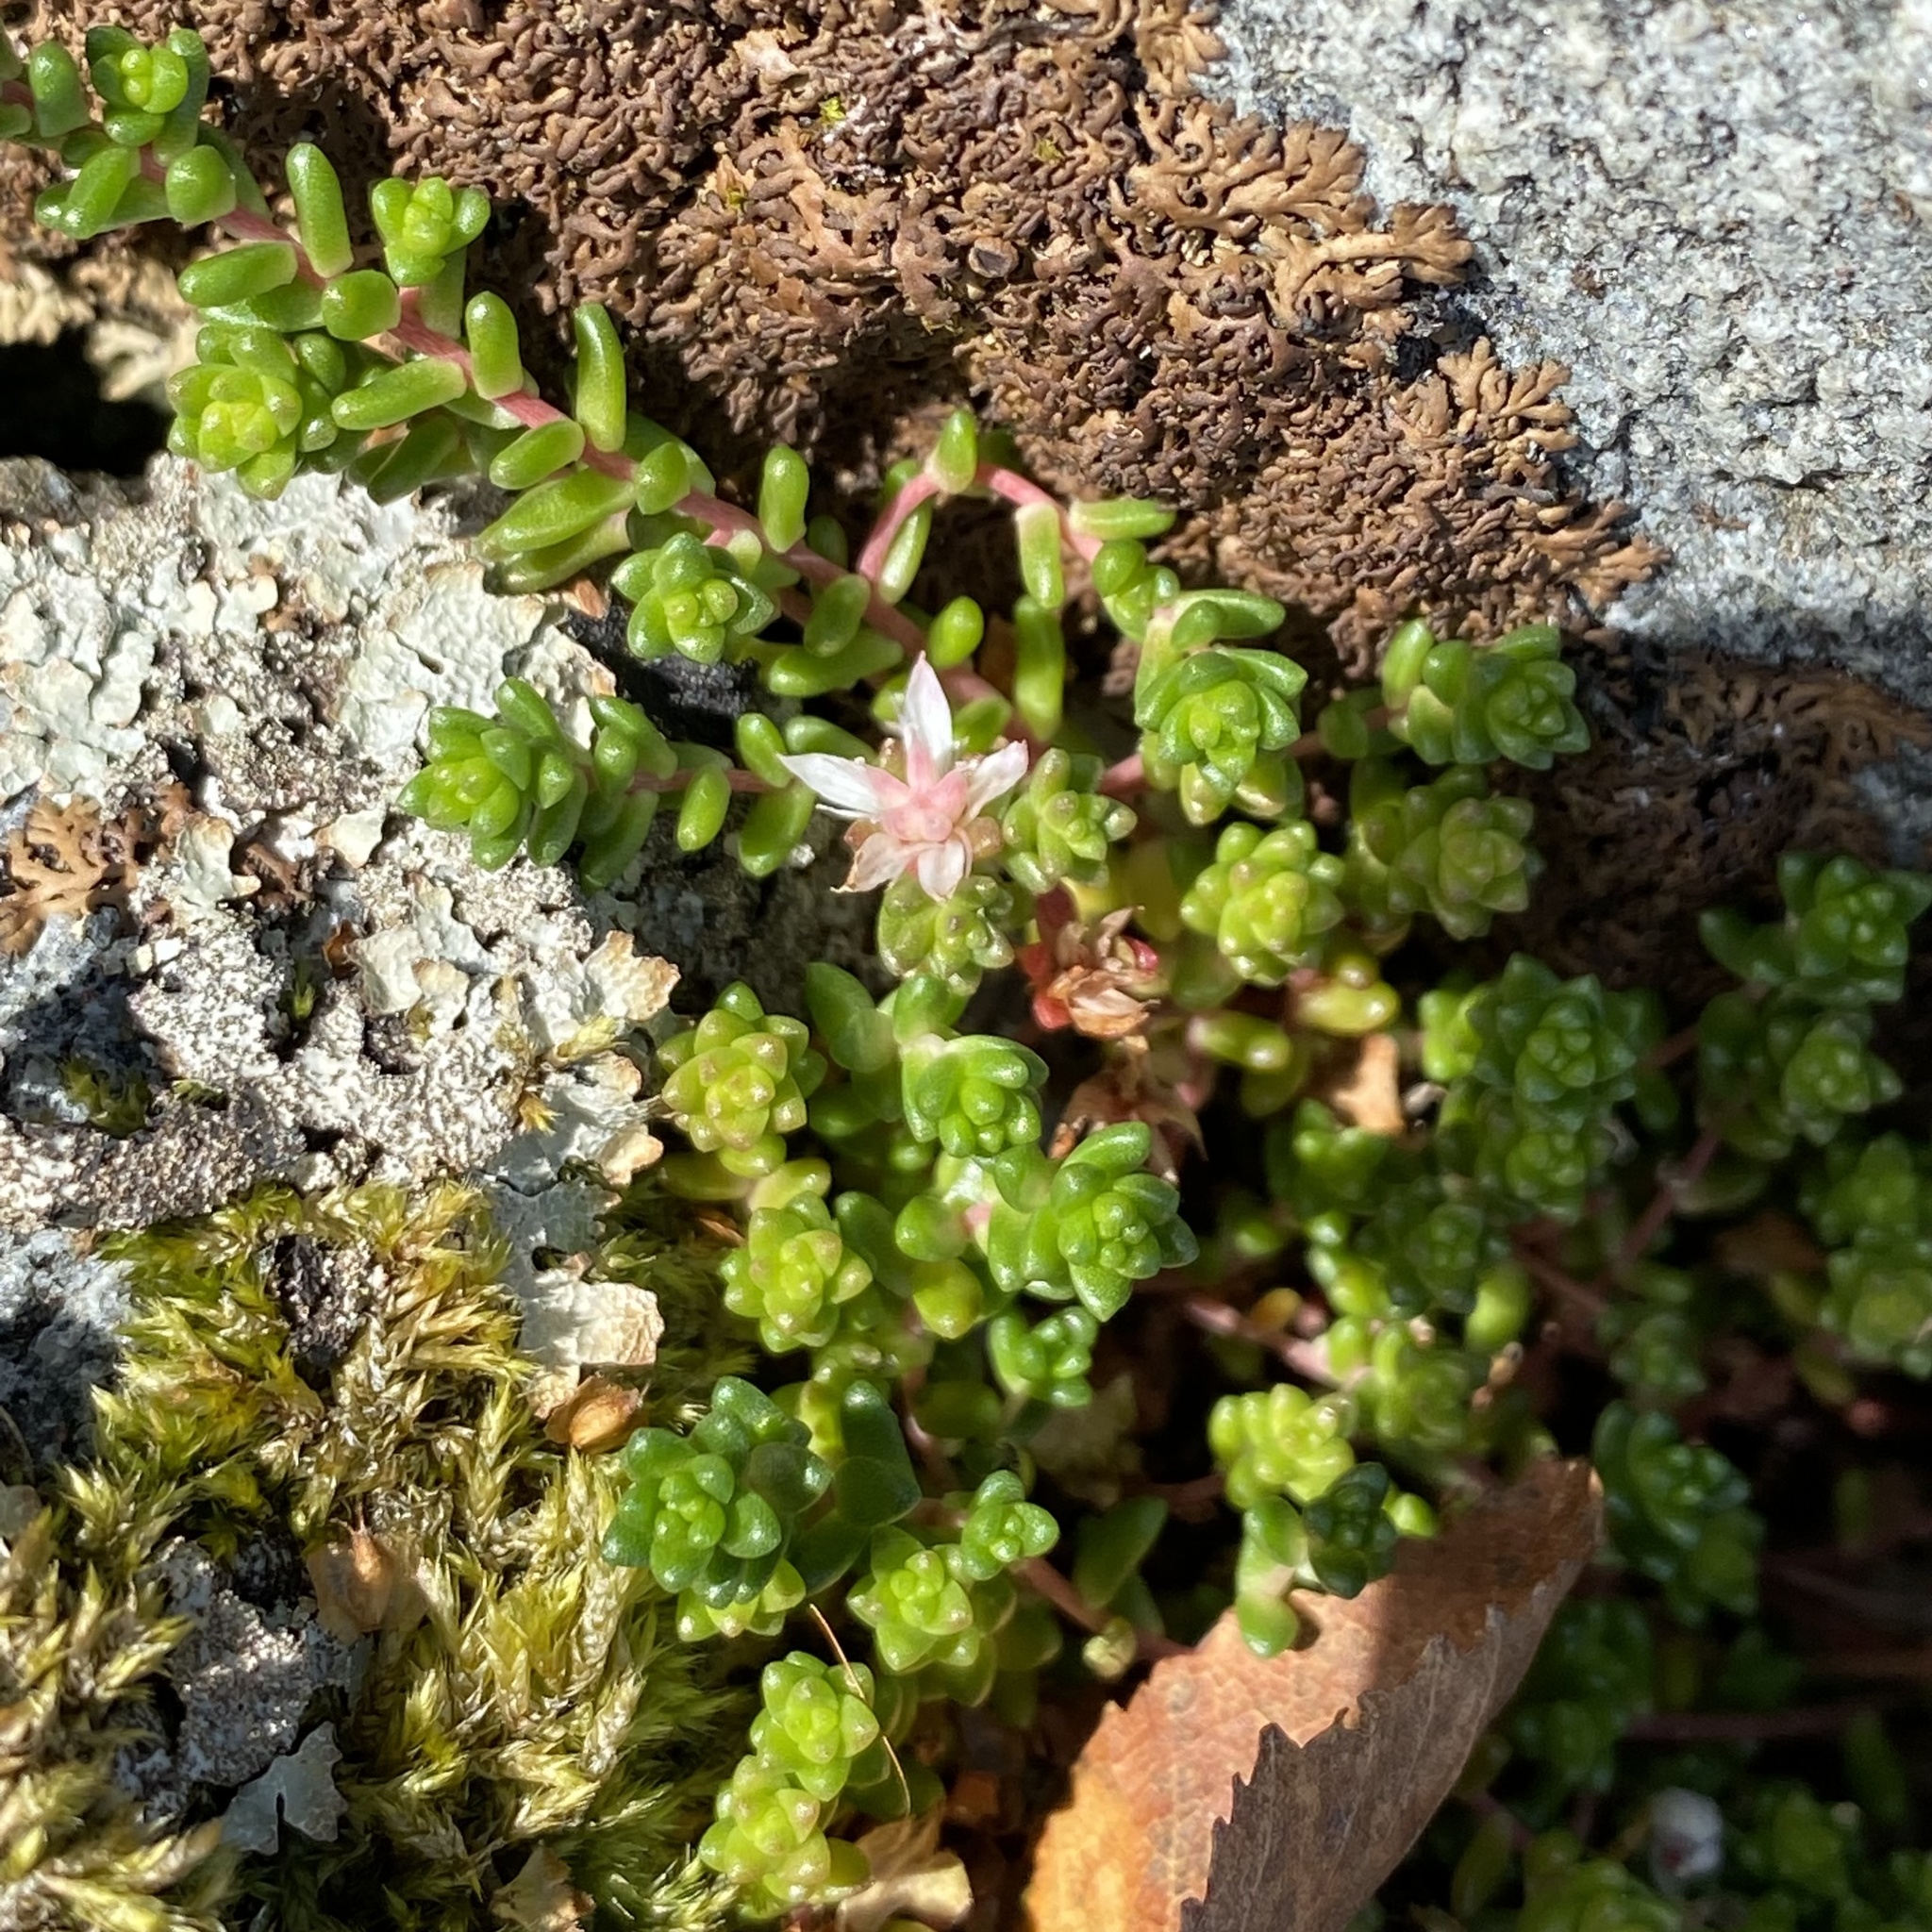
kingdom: Plantae
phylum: Tracheophyta
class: Magnoliopsida
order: Saxifragales
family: Crassulaceae
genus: Sedum
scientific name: Sedum anglicum
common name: English stonecrop
